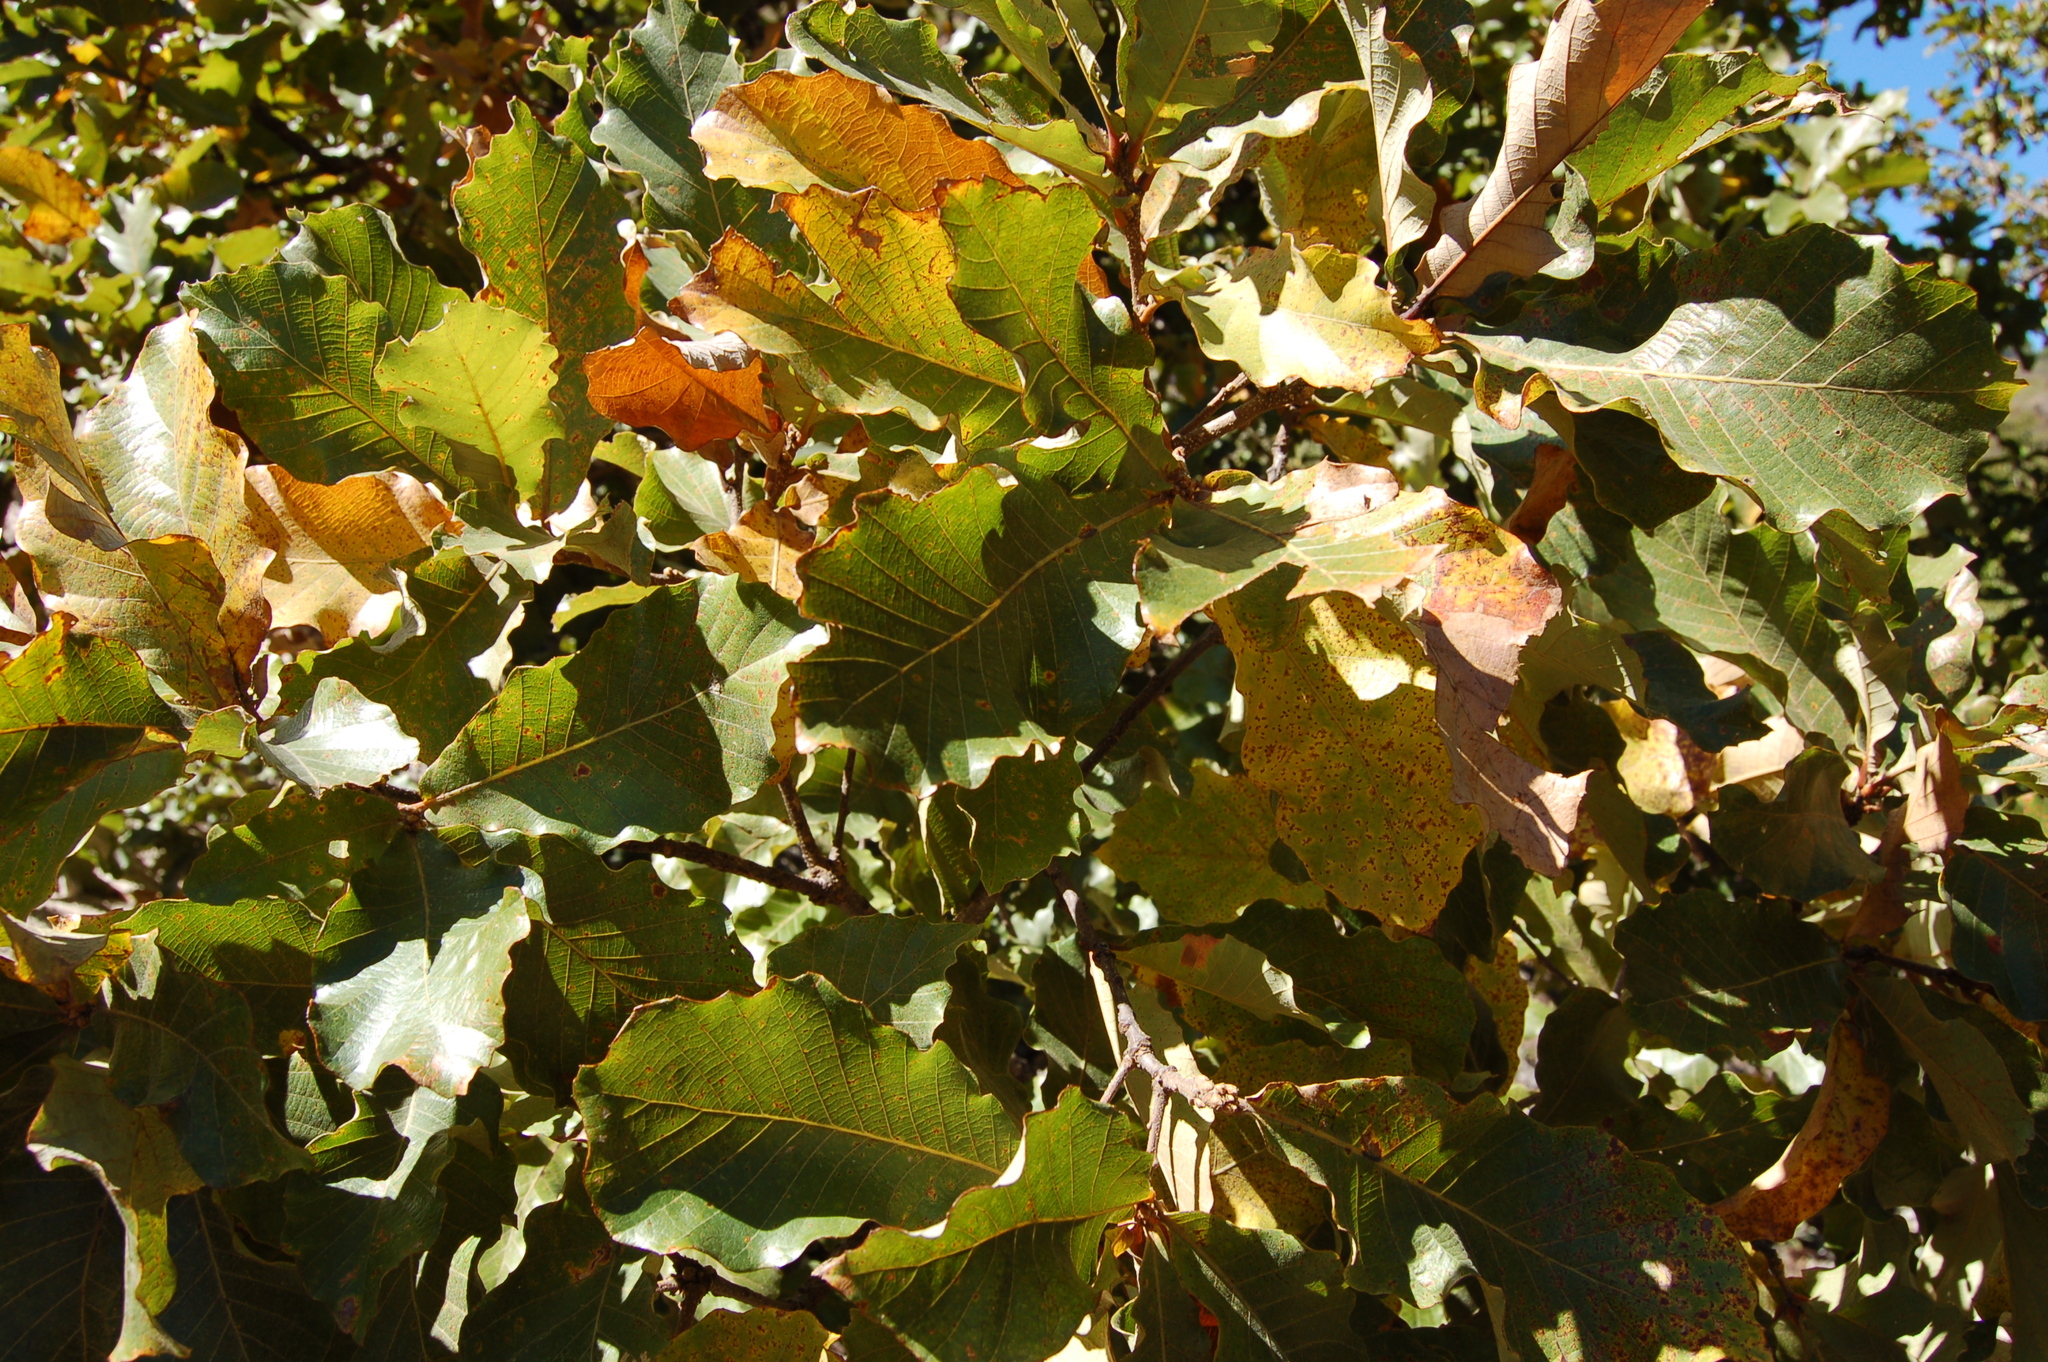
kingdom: Plantae
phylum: Tracheophyta
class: Magnoliopsida
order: Fagales
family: Fagaceae
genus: Quercus
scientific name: Quercus magnoliifolia
